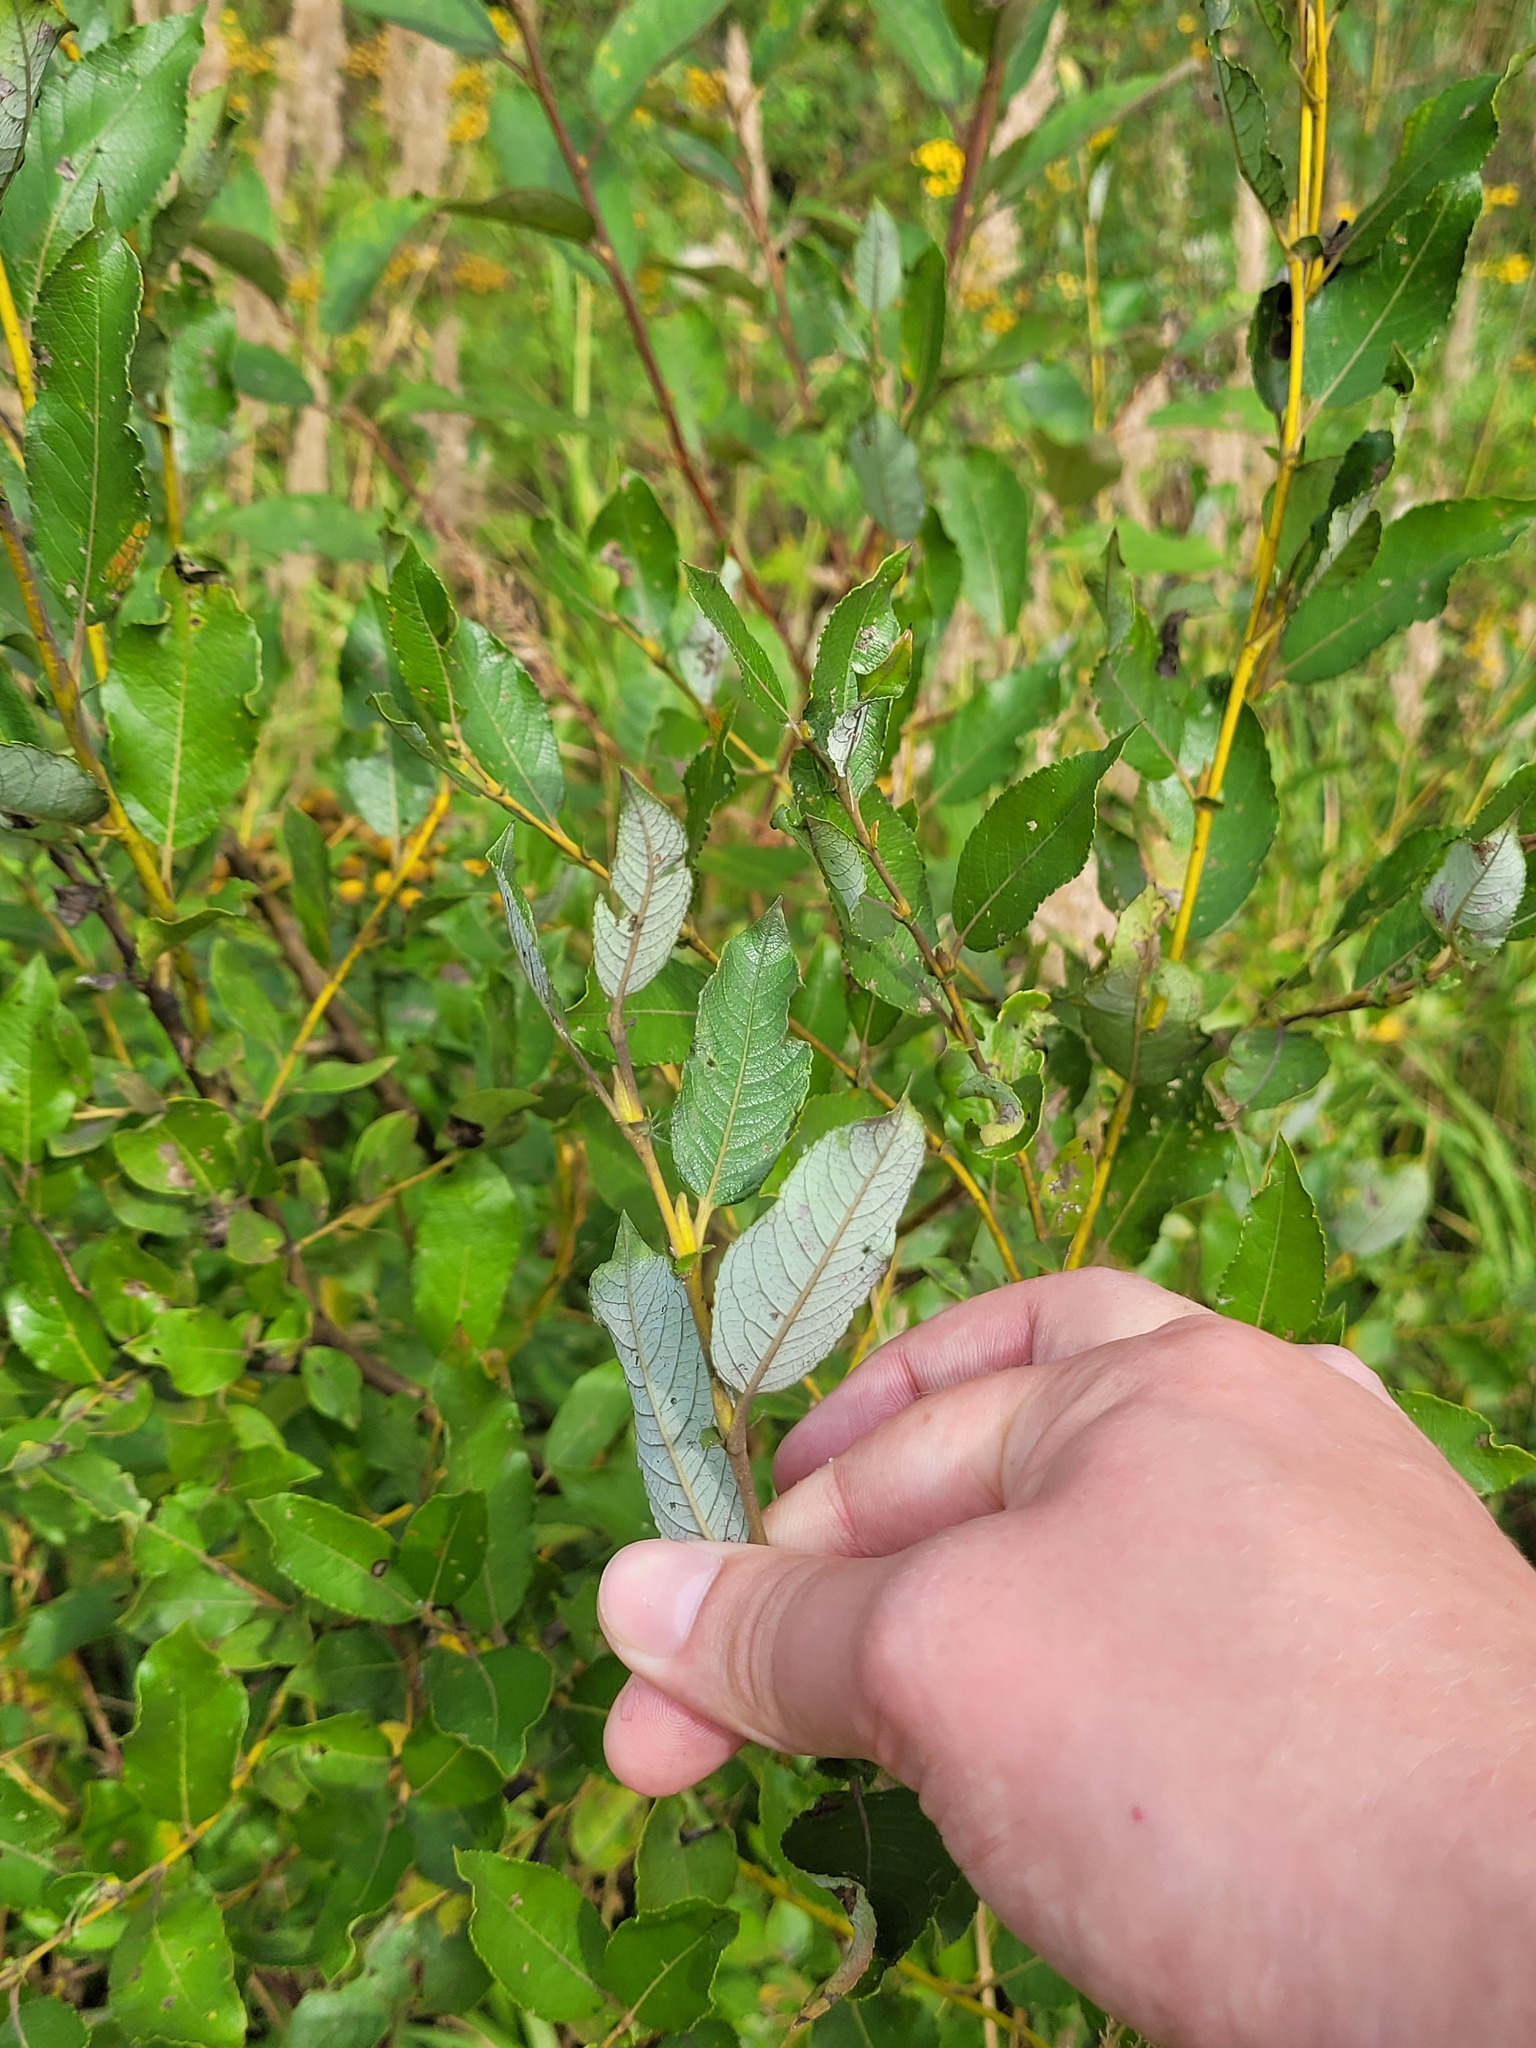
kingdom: Plantae
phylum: Tracheophyta
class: Magnoliopsida
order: Malpighiales
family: Salicaceae
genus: Salix
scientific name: Salix myrsinifolia
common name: Dark-leaved willow
